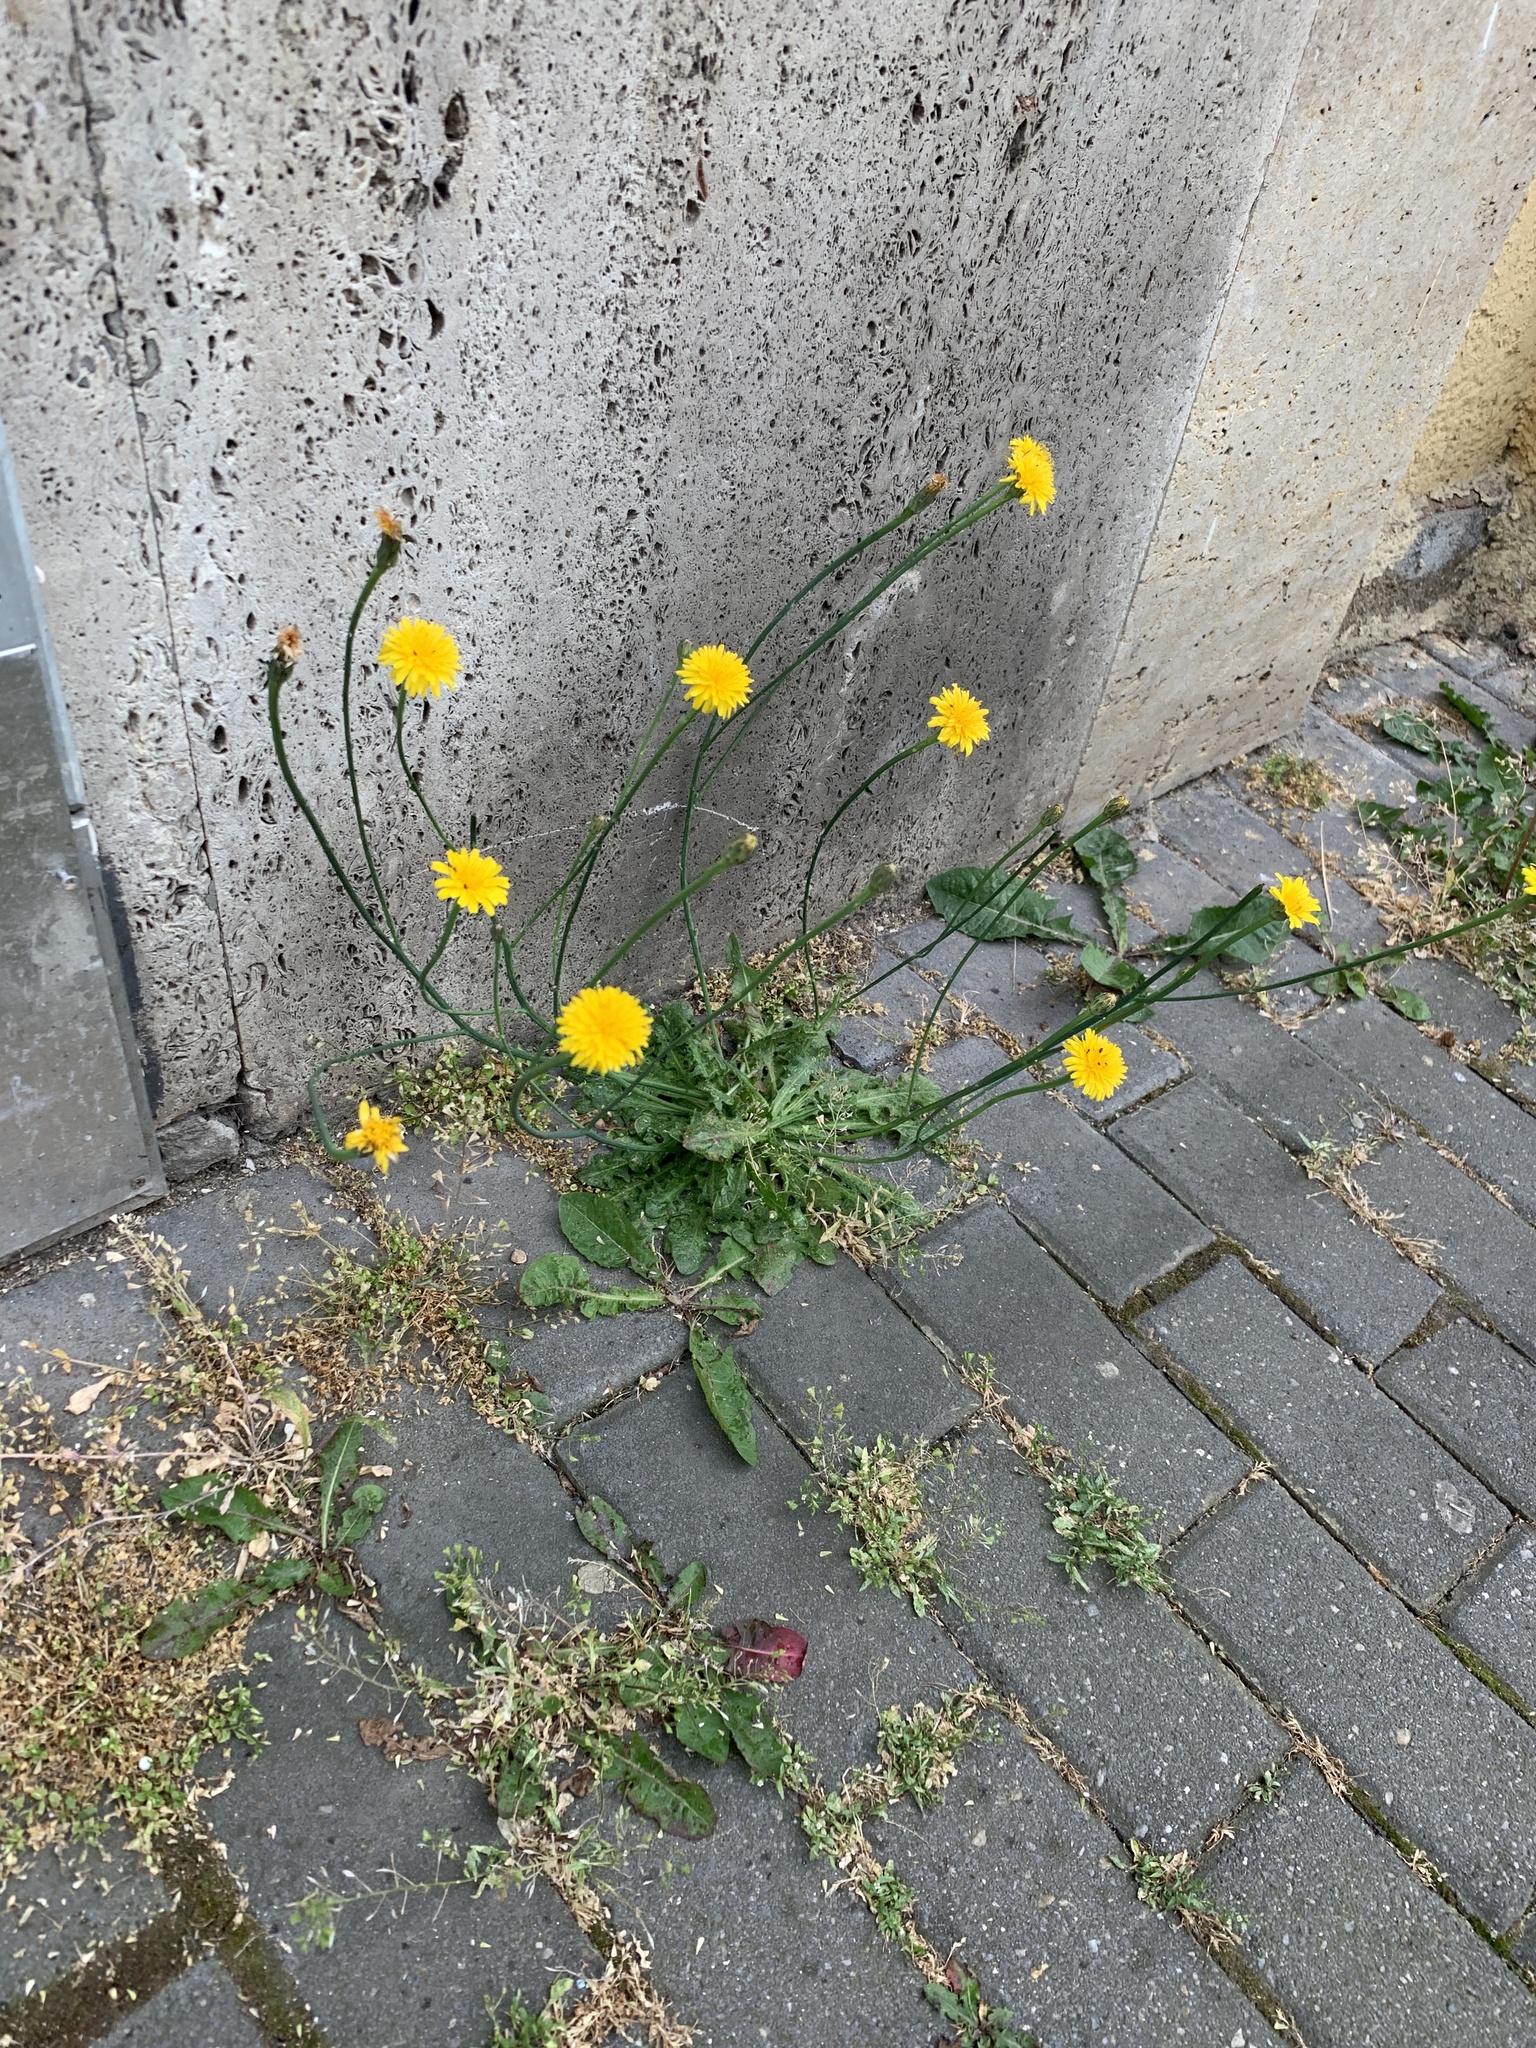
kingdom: Plantae
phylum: Tracheophyta
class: Magnoliopsida
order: Asterales
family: Asteraceae
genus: Hypochaeris
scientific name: Hypochaeris radicata
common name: Flatweed
